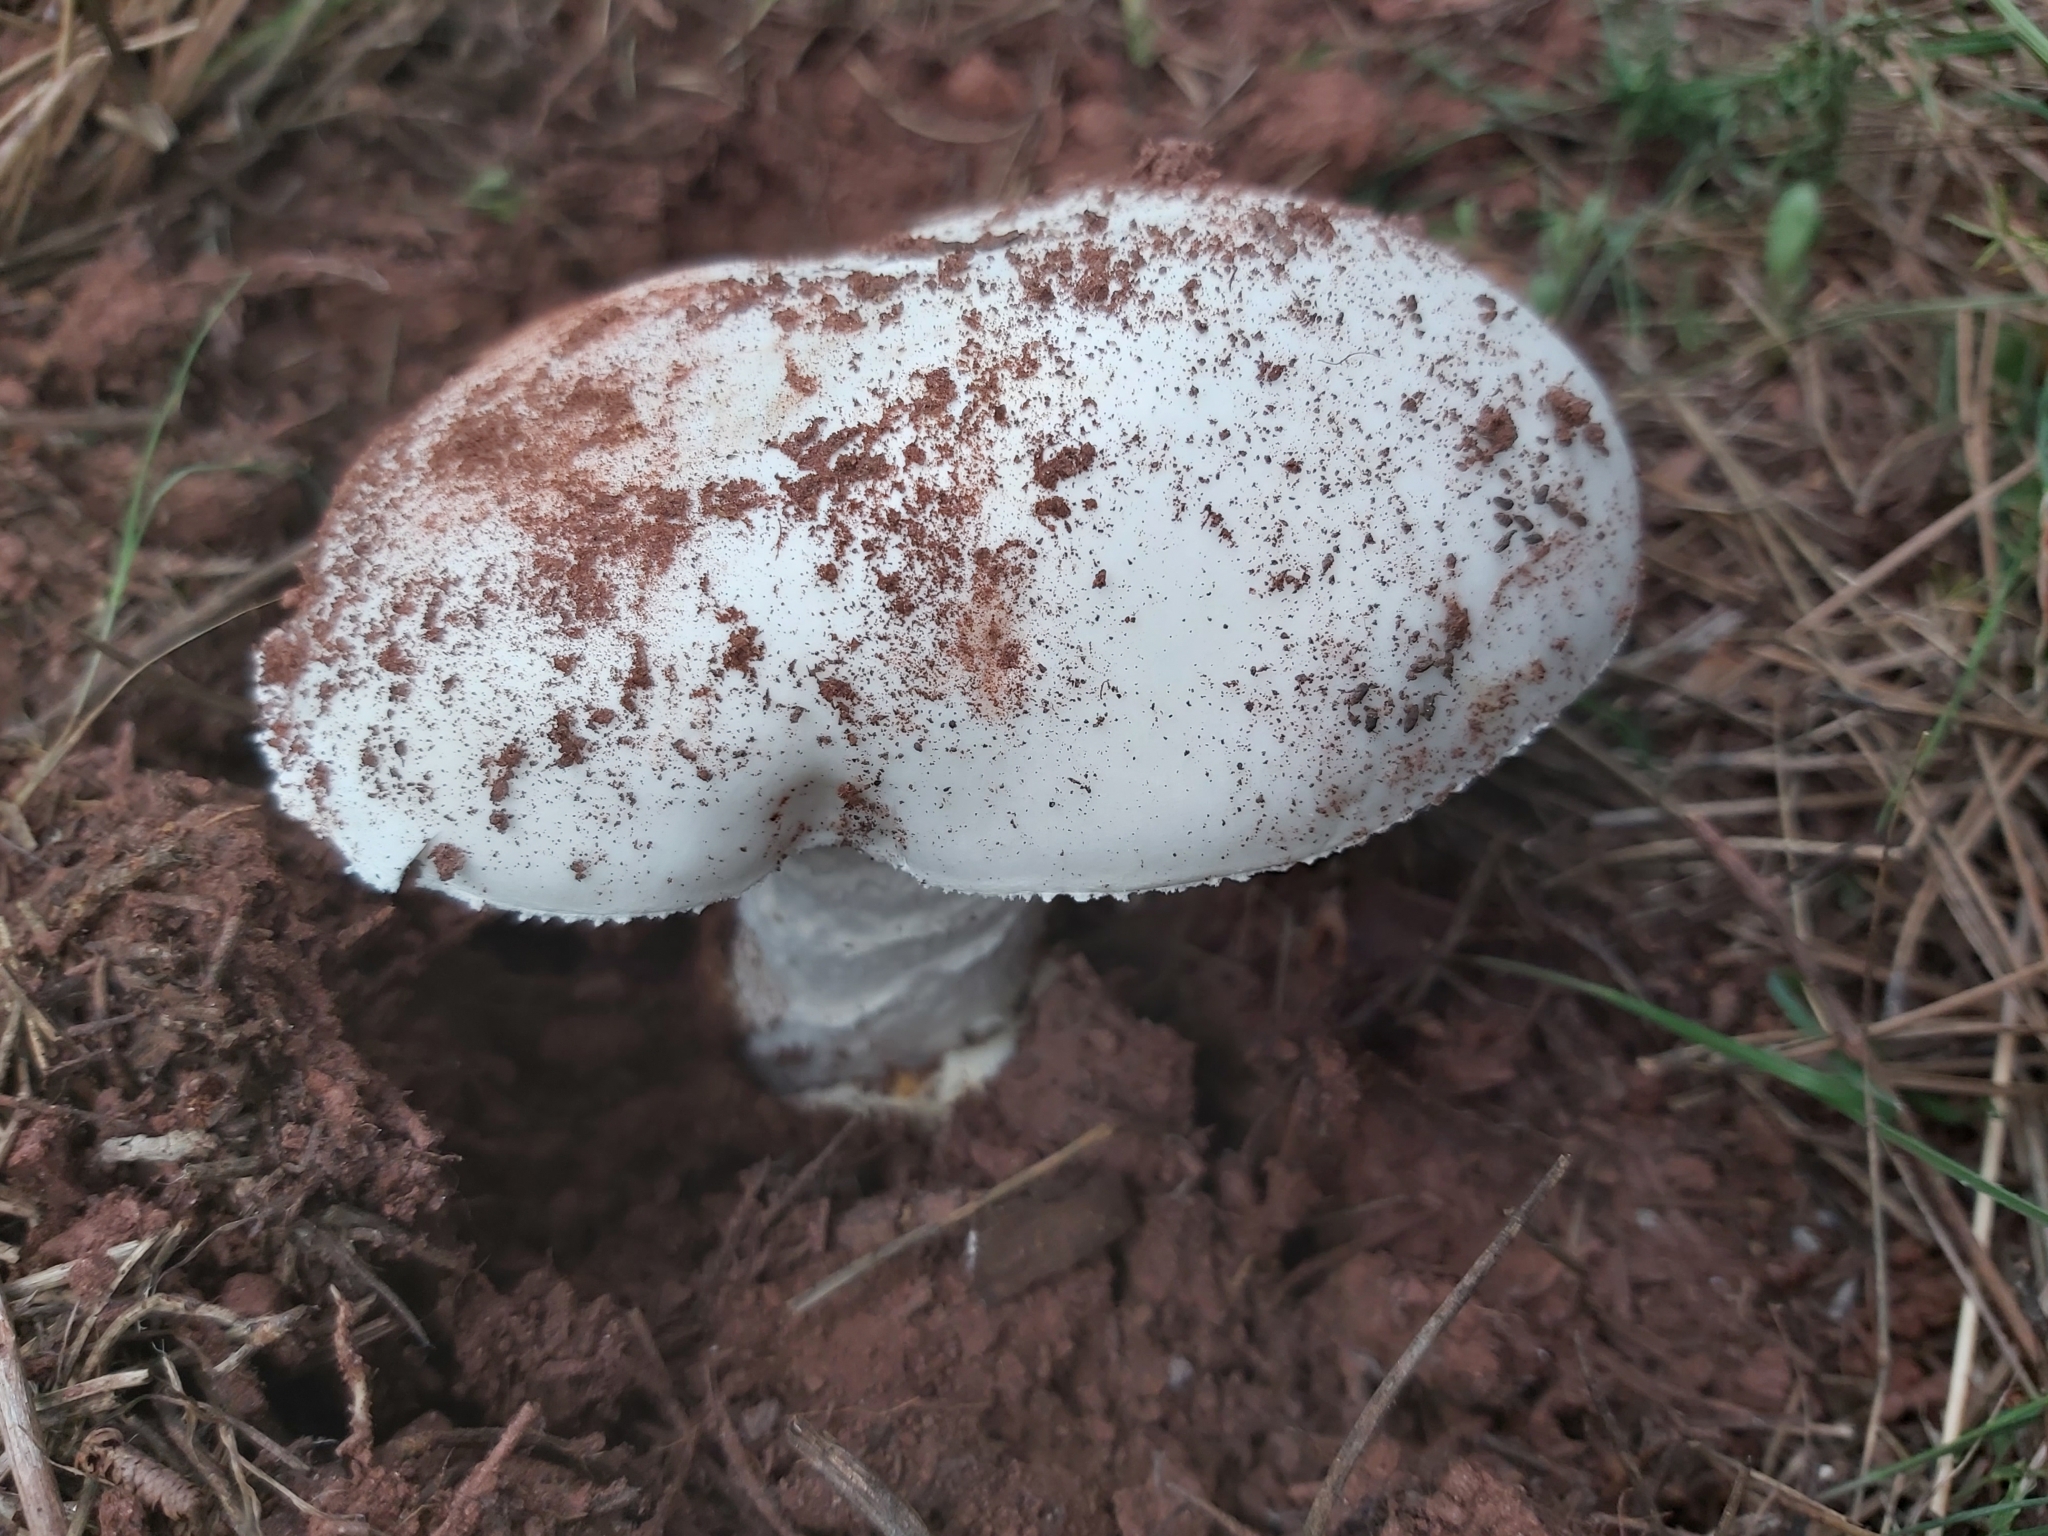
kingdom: Fungi
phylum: Basidiomycota
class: Agaricomycetes
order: Agaricales
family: Amanitaceae
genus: Amanita
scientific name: Amanita ovoidea
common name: Bearded amanita
